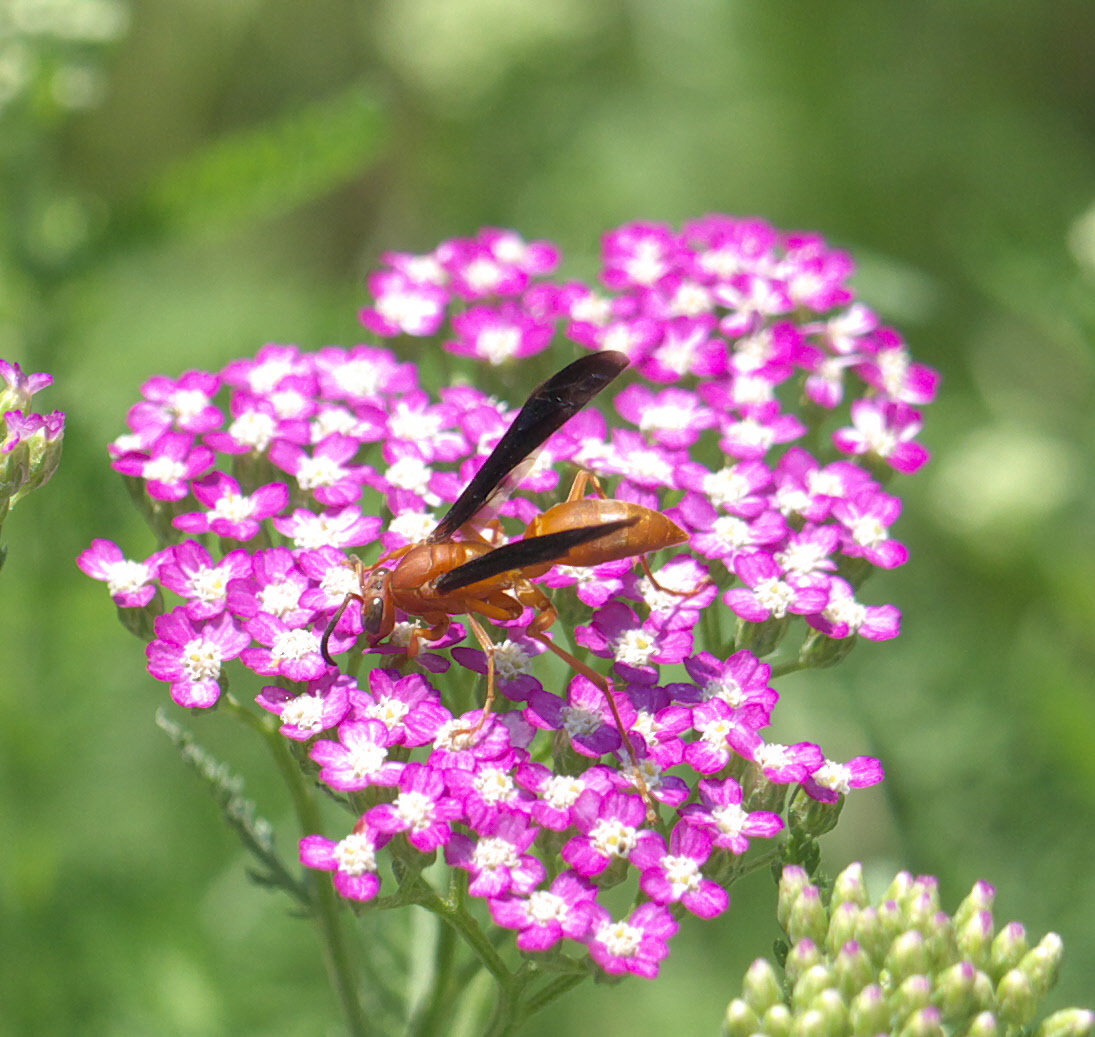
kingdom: Animalia
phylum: Arthropoda
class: Insecta
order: Hymenoptera
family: Eumenidae
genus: Polistes
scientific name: Polistes carolina
